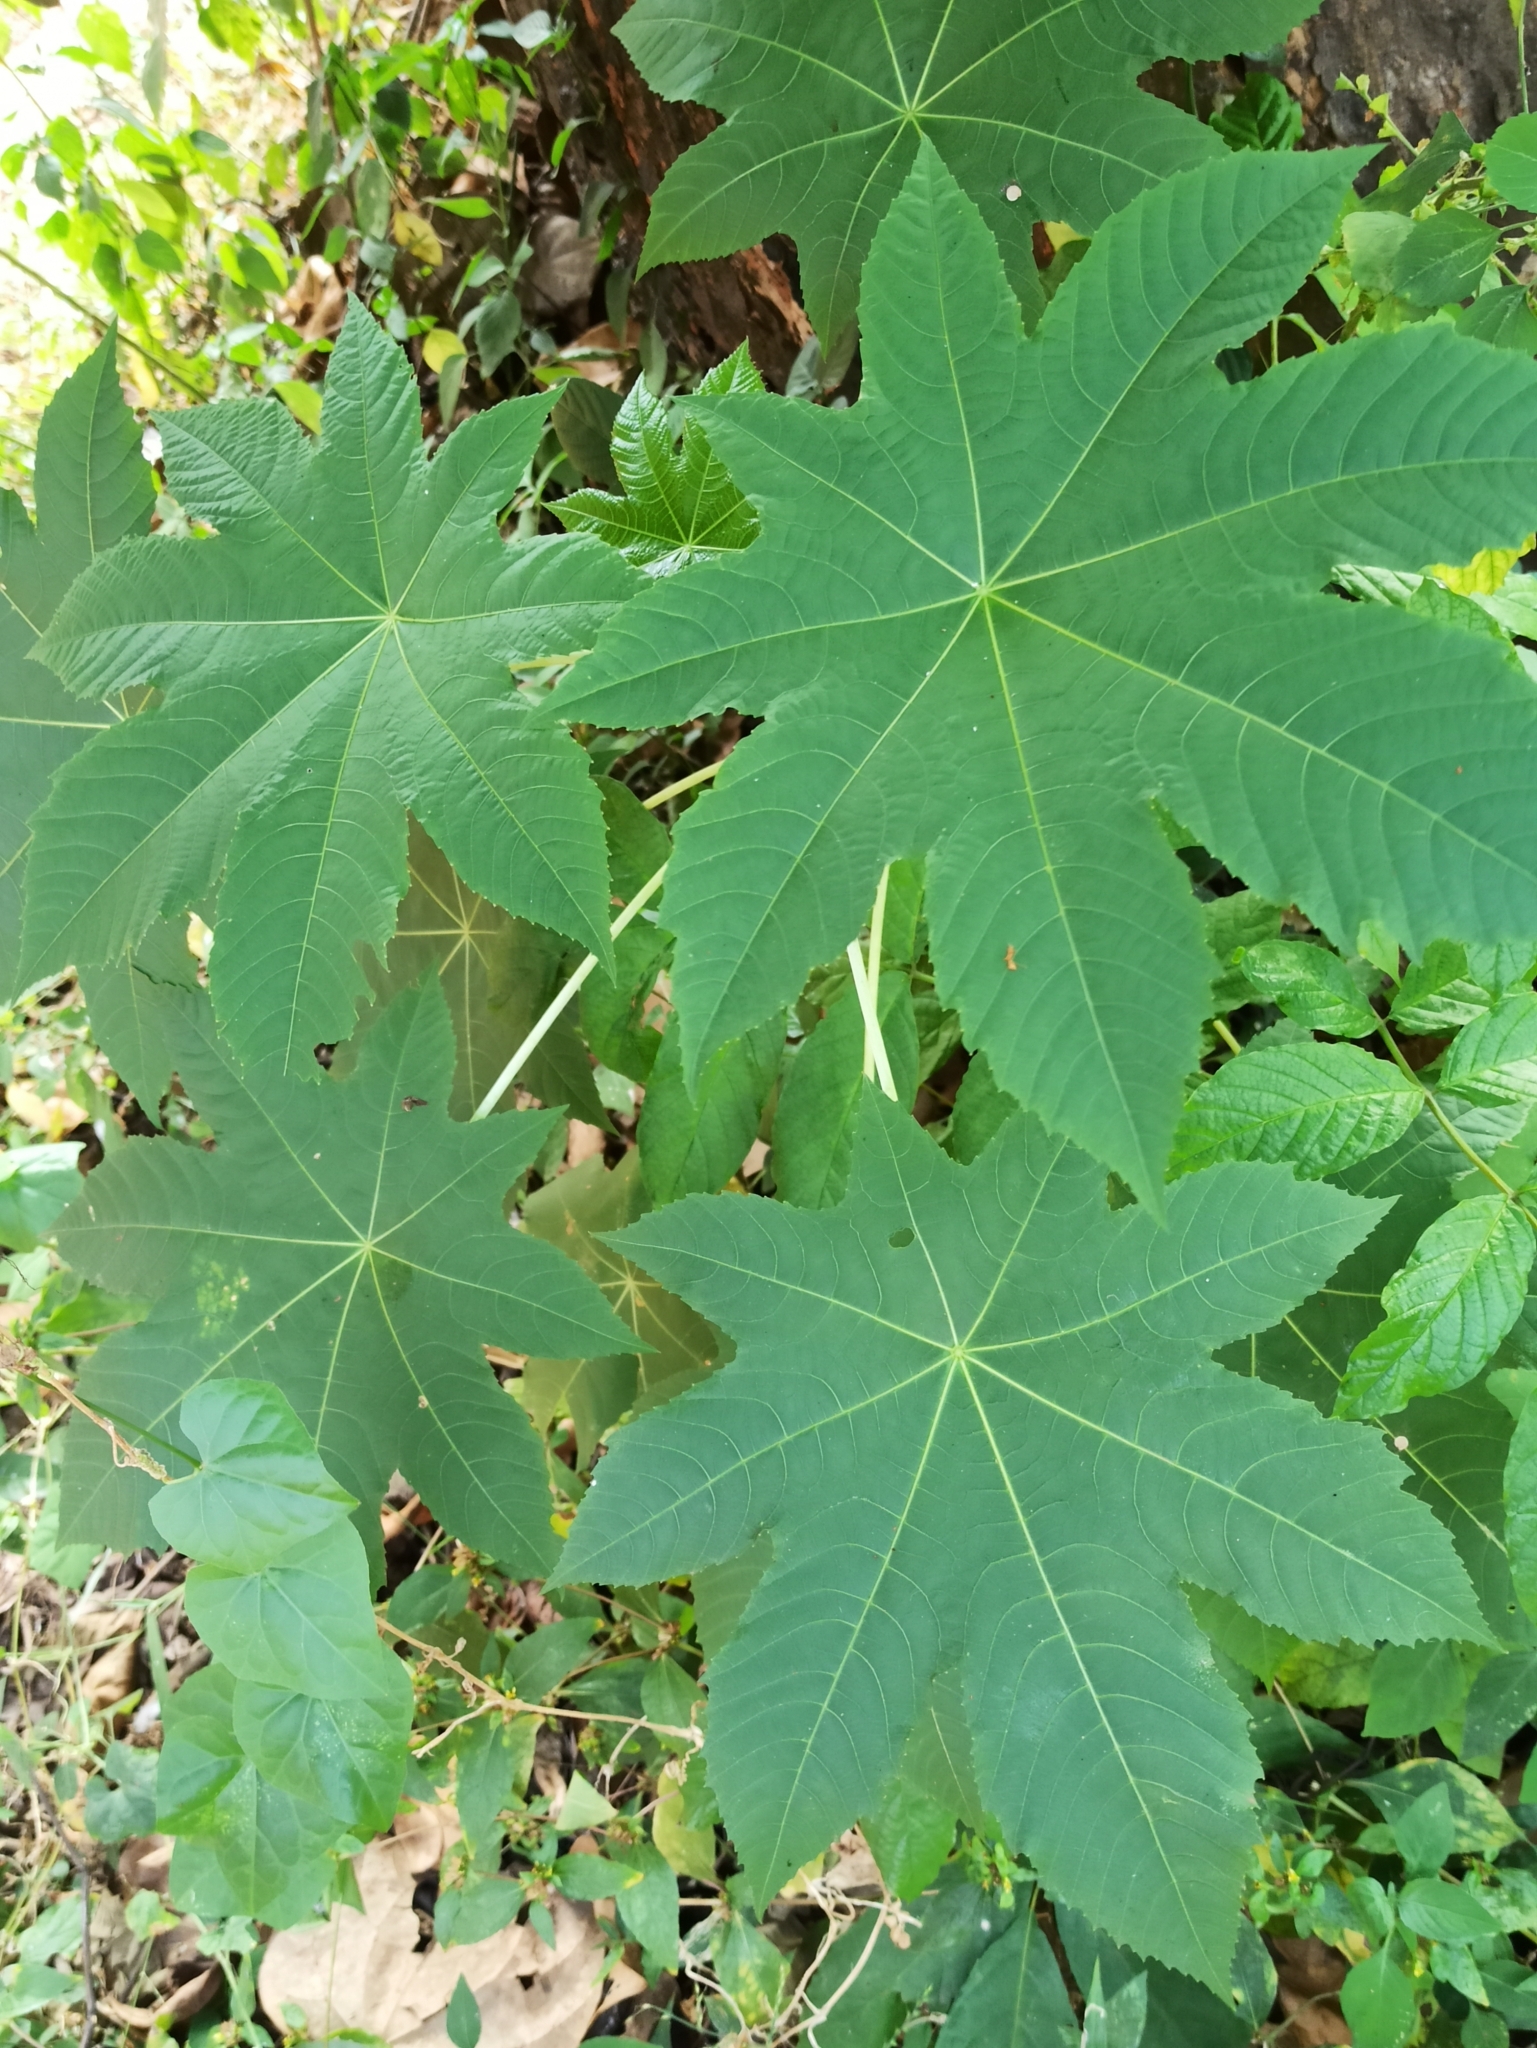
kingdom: Plantae
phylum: Tracheophyta
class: Magnoliopsida
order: Malpighiales
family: Euphorbiaceae
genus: Ricinus
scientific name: Ricinus communis
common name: Castor-oil-plant
